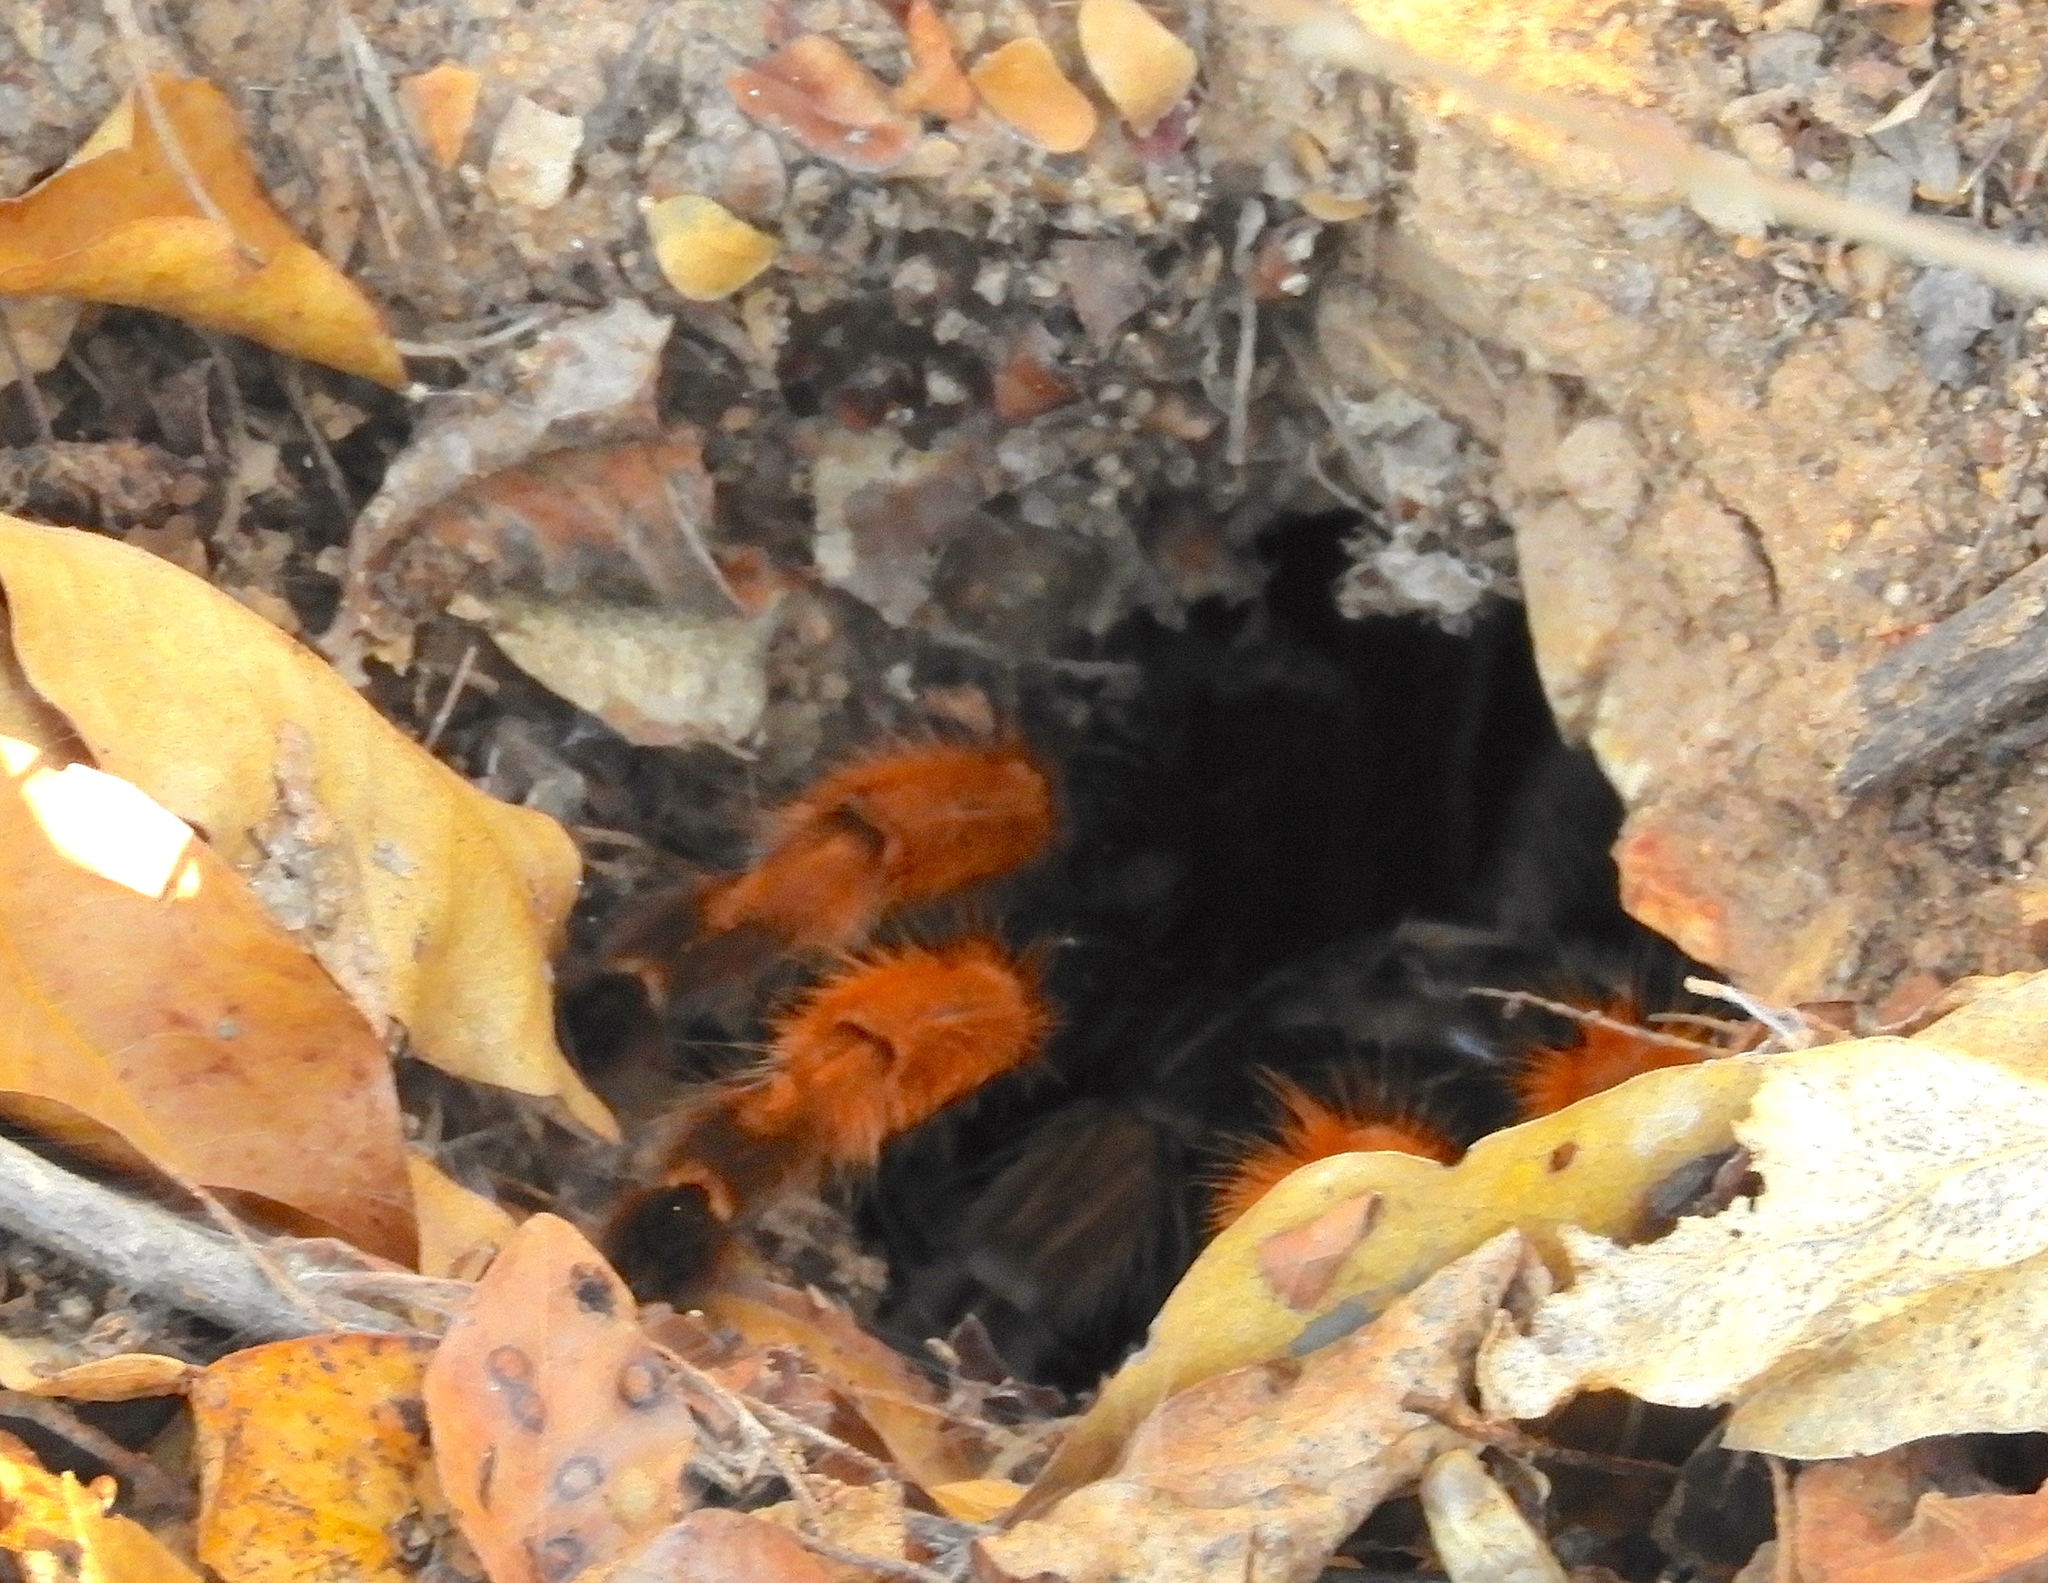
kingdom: Animalia
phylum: Arthropoda
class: Arachnida
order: Araneae
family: Theraphosidae
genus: Brachypelma
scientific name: Brachypelma emilia
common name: Mexican redleg
